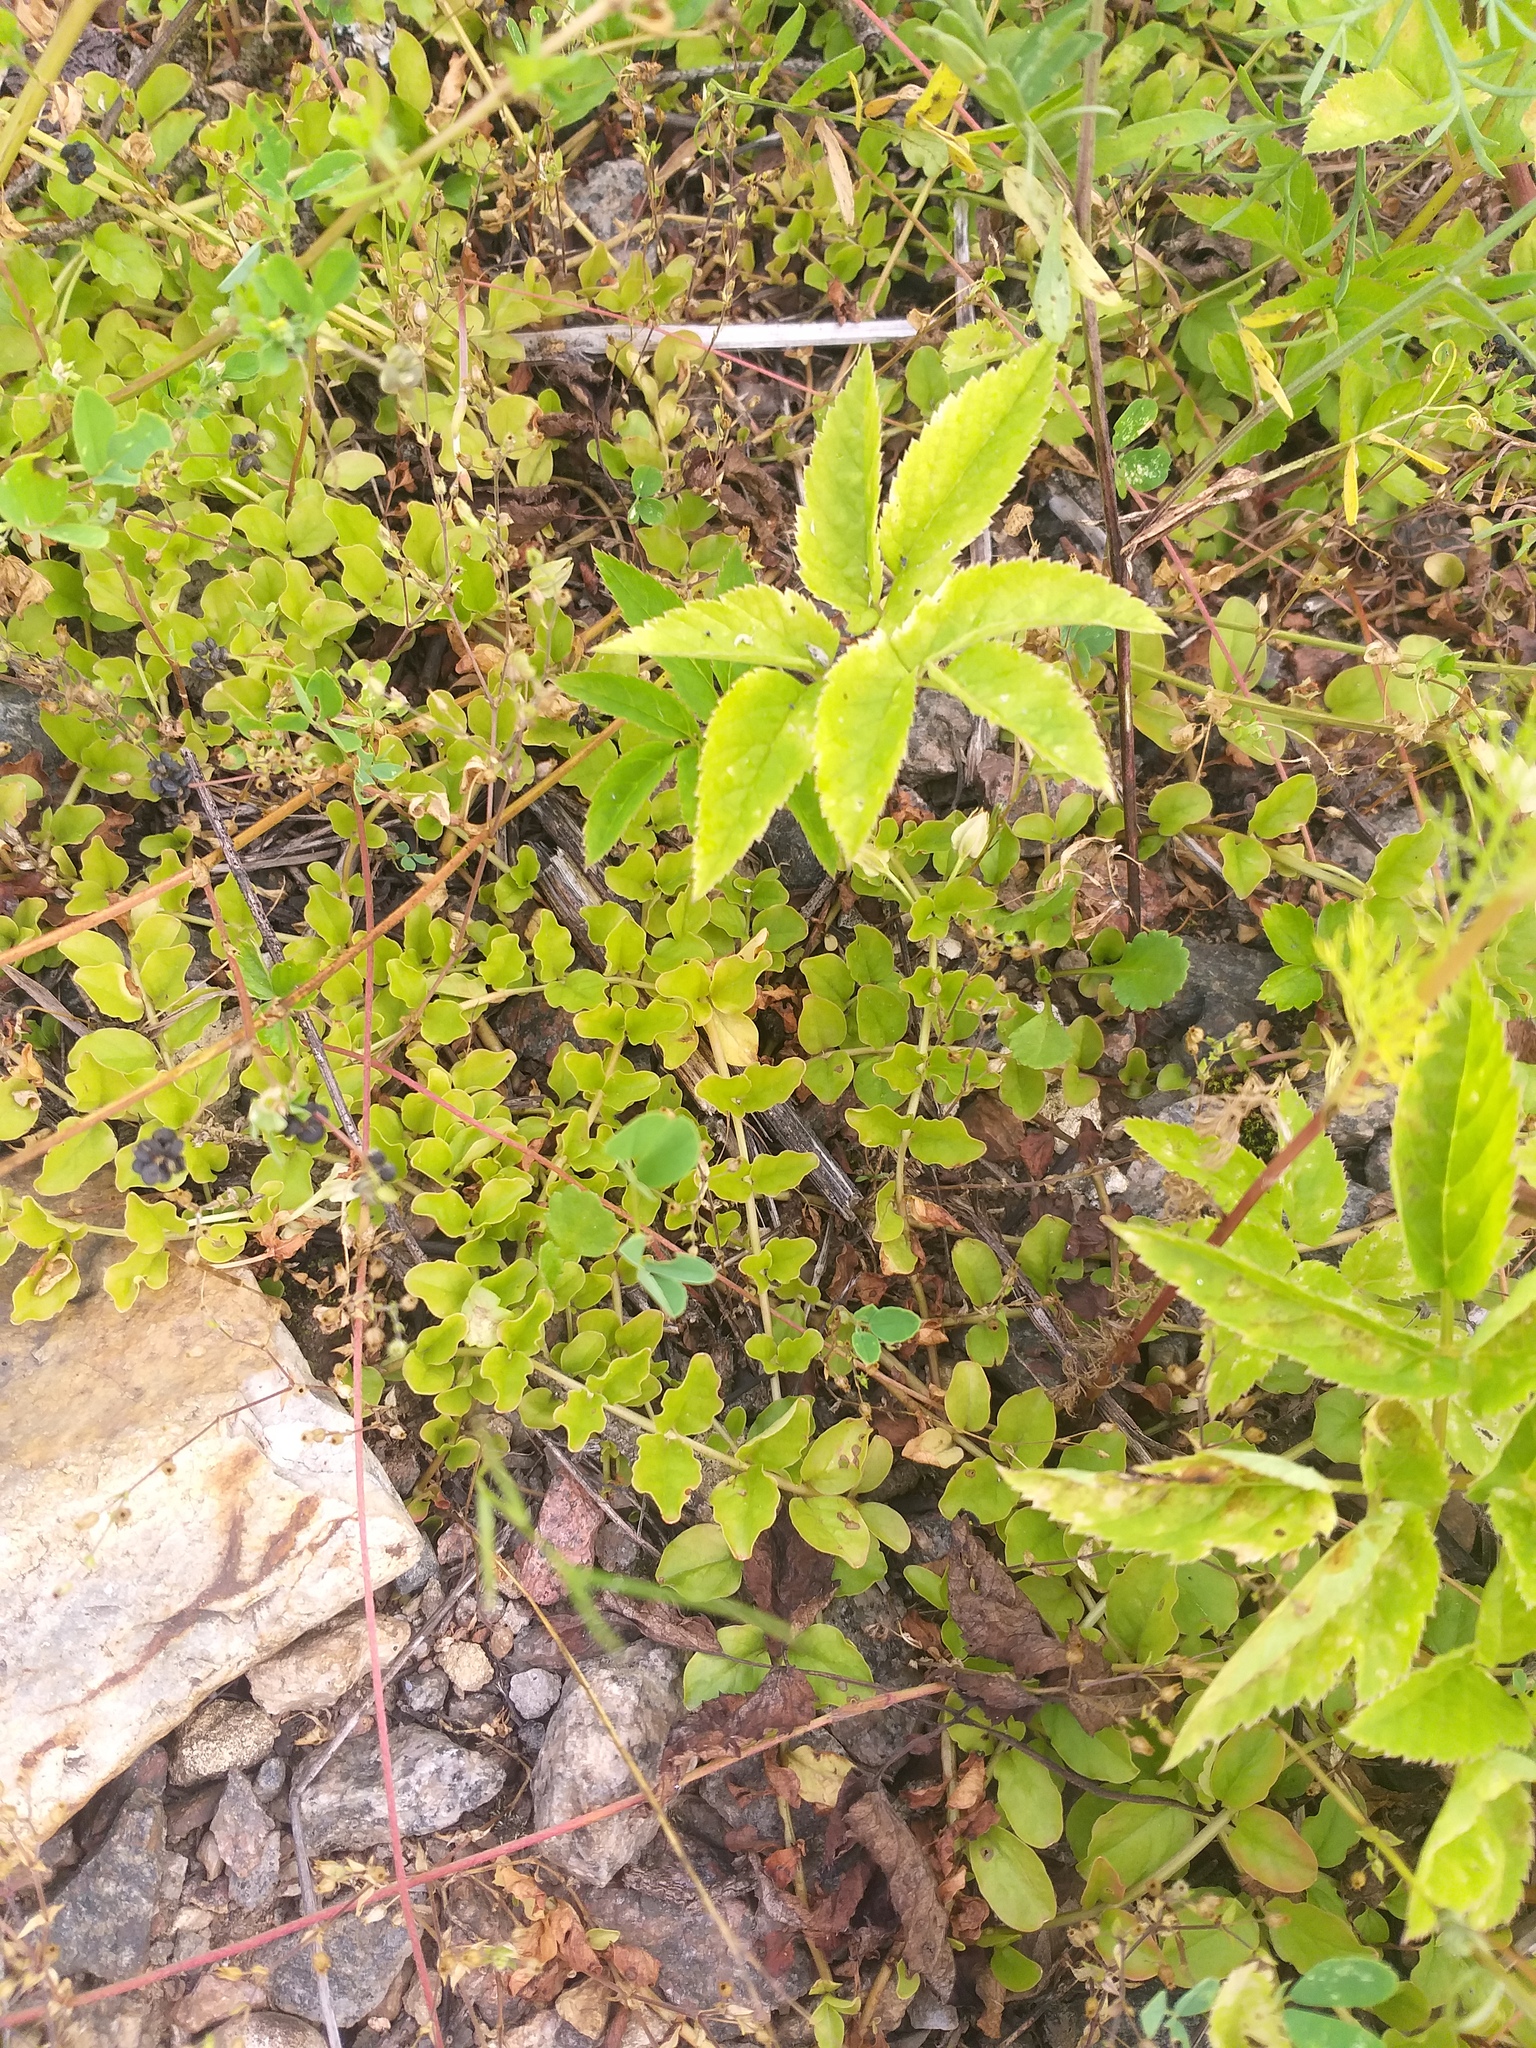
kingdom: Plantae
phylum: Tracheophyta
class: Magnoliopsida
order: Ericales
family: Primulaceae
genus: Lysimachia
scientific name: Lysimachia nummularia
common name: Moneywort
